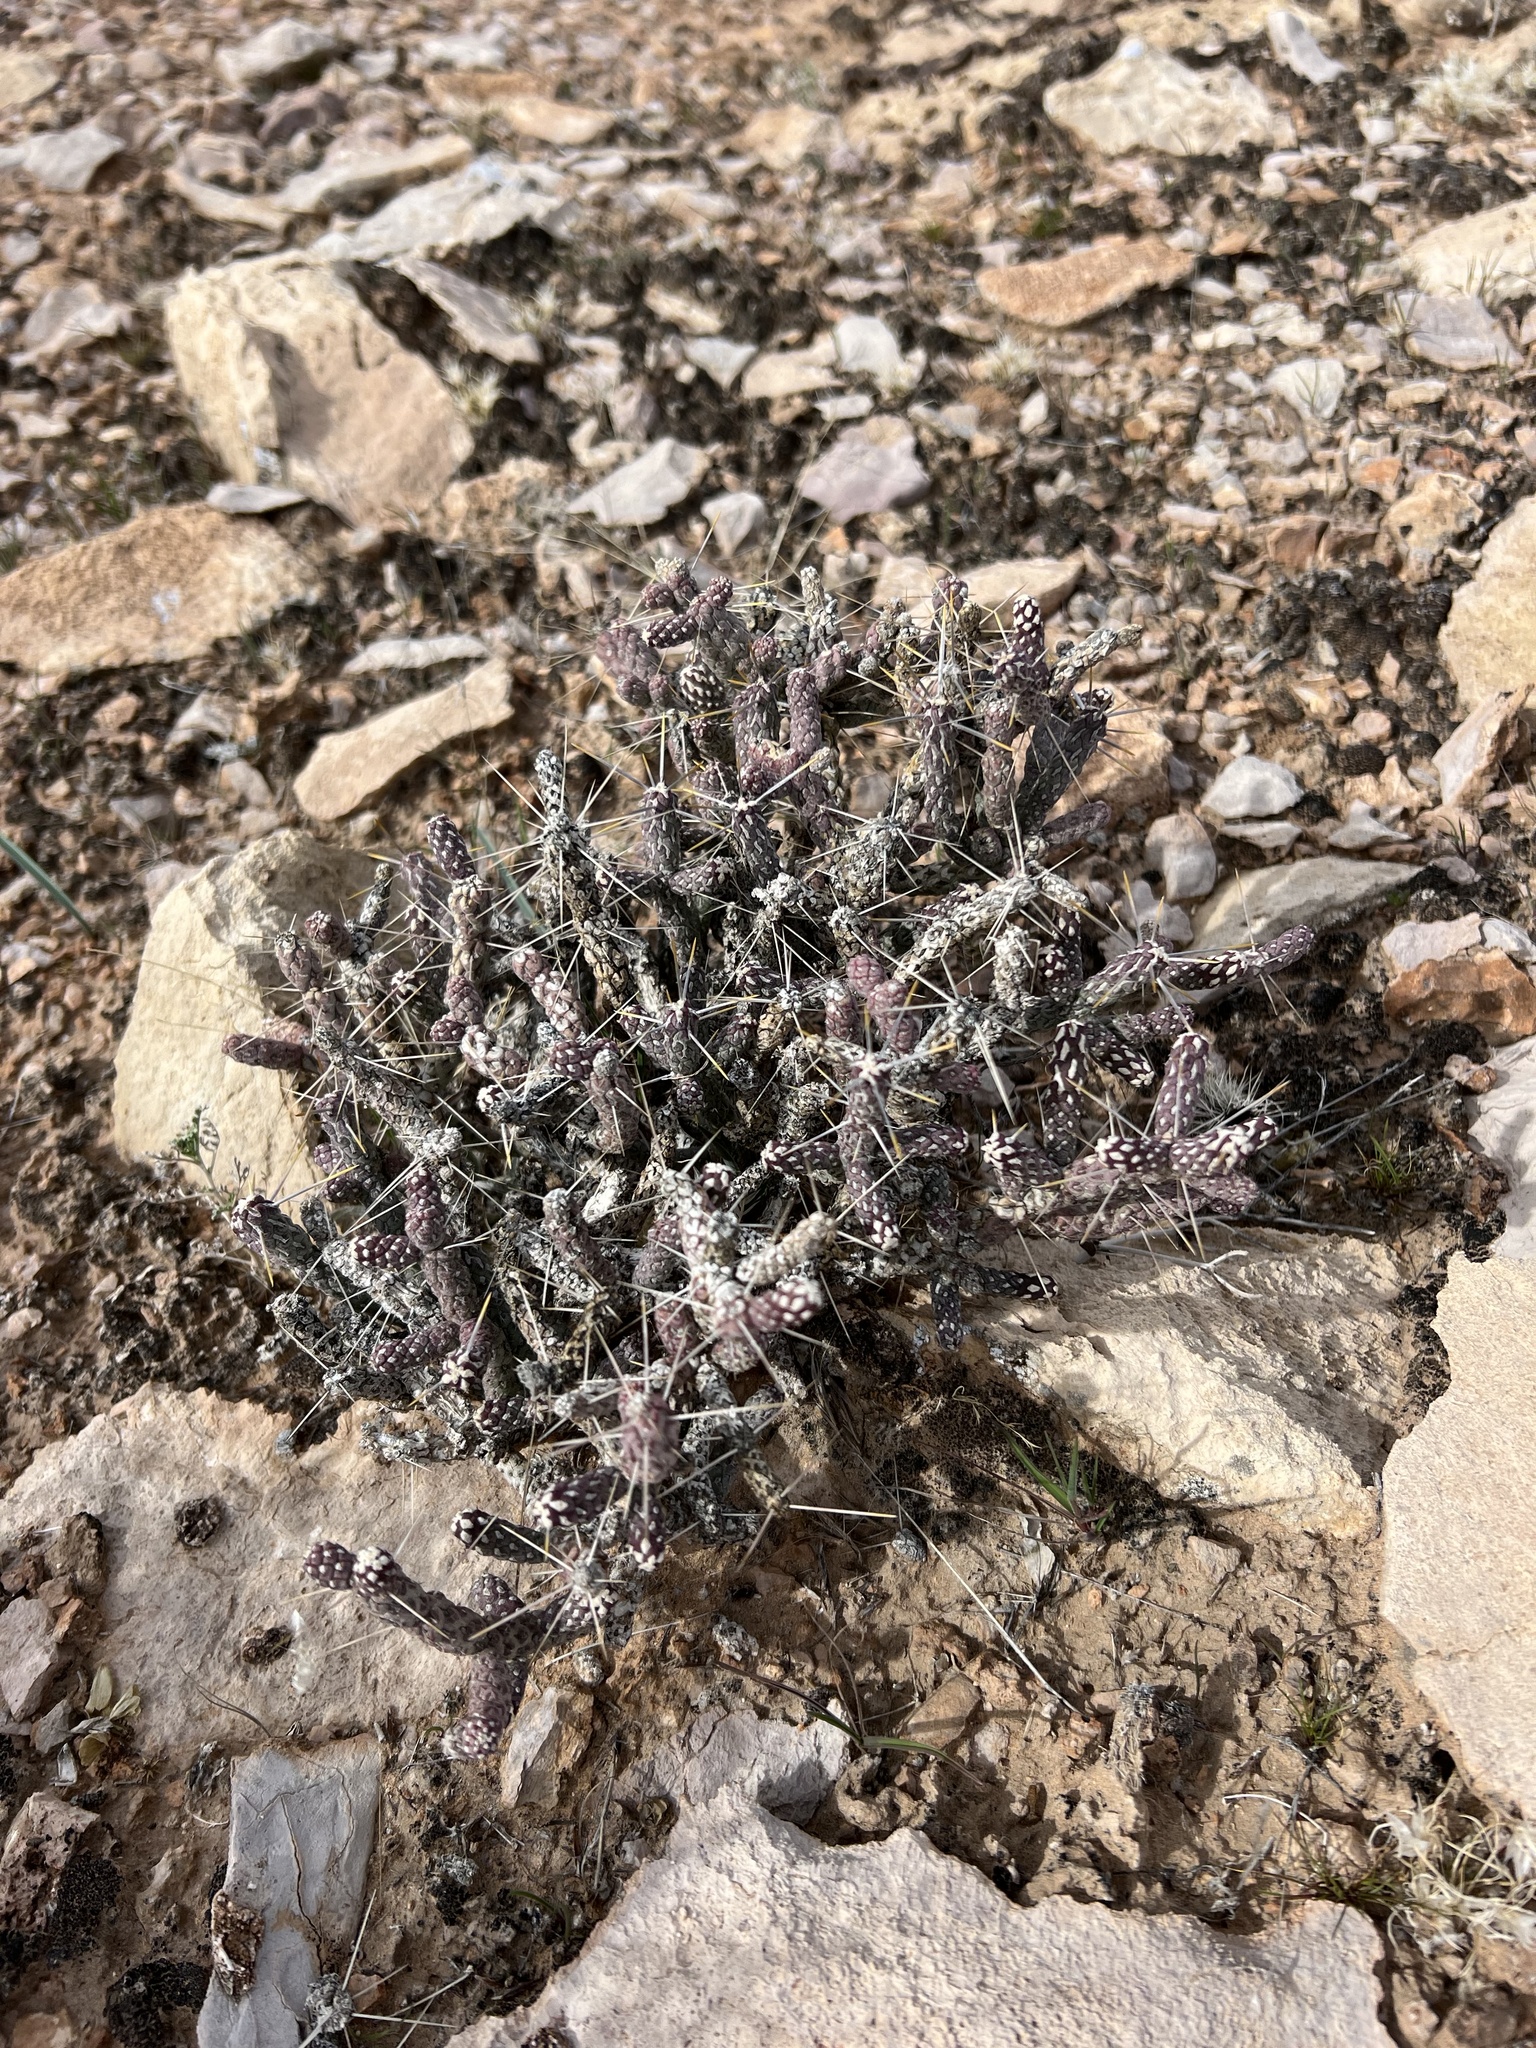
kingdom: Plantae
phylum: Tracheophyta
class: Magnoliopsida
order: Caryophyllales
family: Cactaceae
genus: Cylindropuntia
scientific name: Cylindropuntia ramosissima
